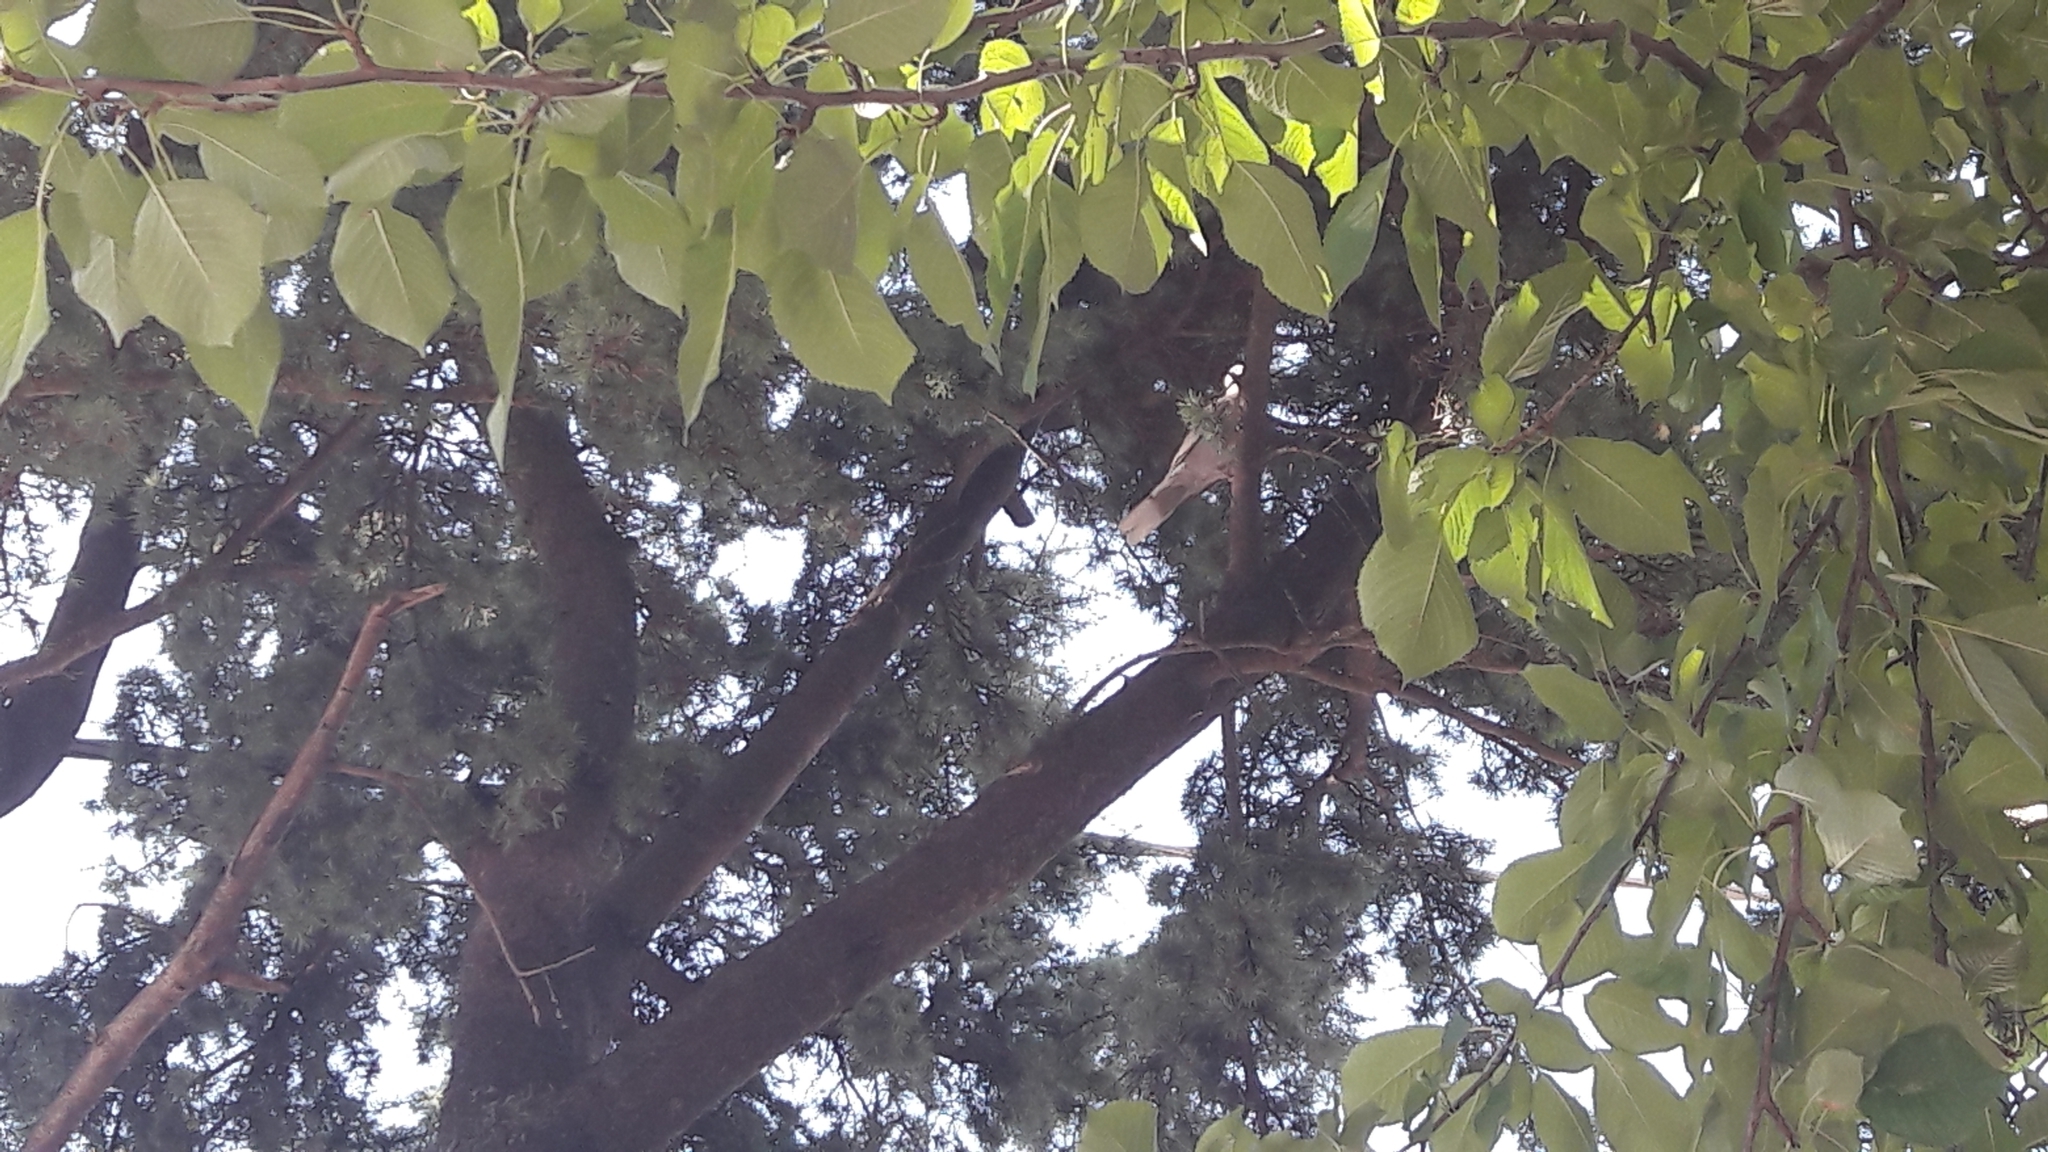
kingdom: Animalia
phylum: Chordata
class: Aves
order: Columbiformes
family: Columbidae
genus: Streptopelia
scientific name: Streptopelia decaocto
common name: Eurasian collared dove
